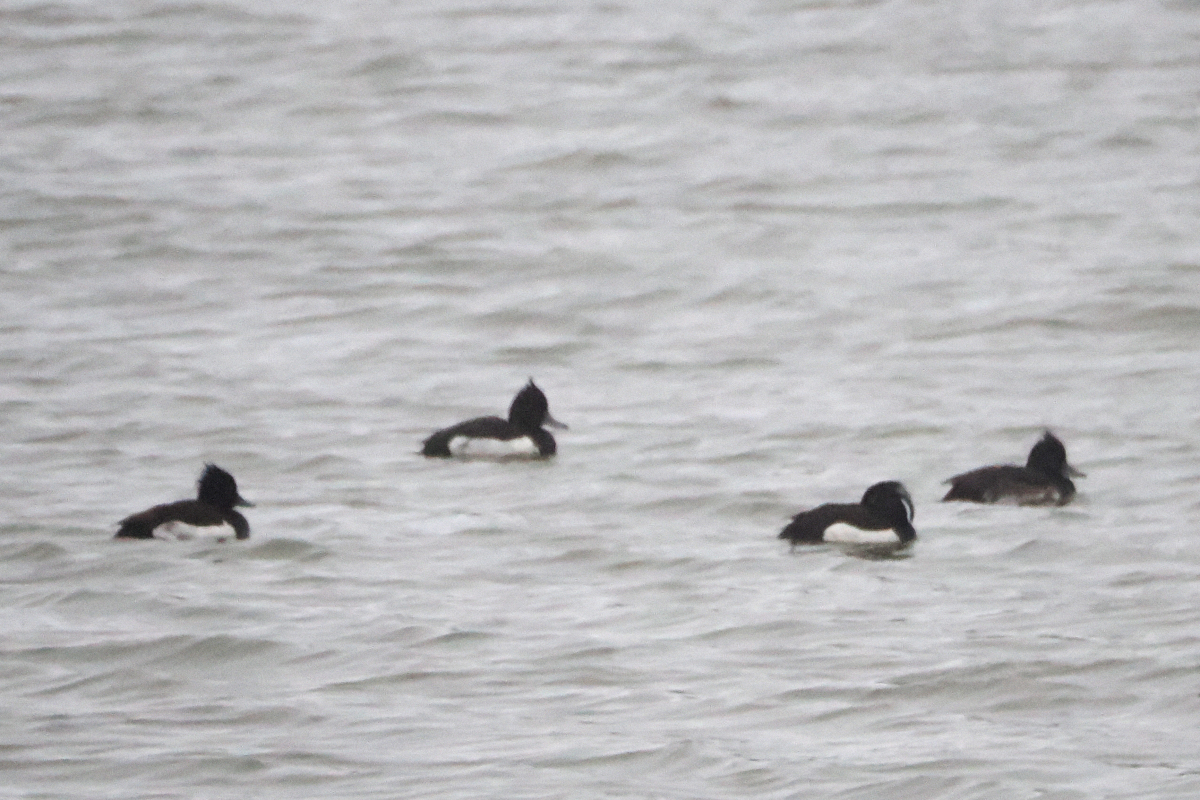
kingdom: Animalia
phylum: Chordata
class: Aves
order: Anseriformes
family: Anatidae
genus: Aythya
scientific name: Aythya fuligula
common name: Tufted duck
